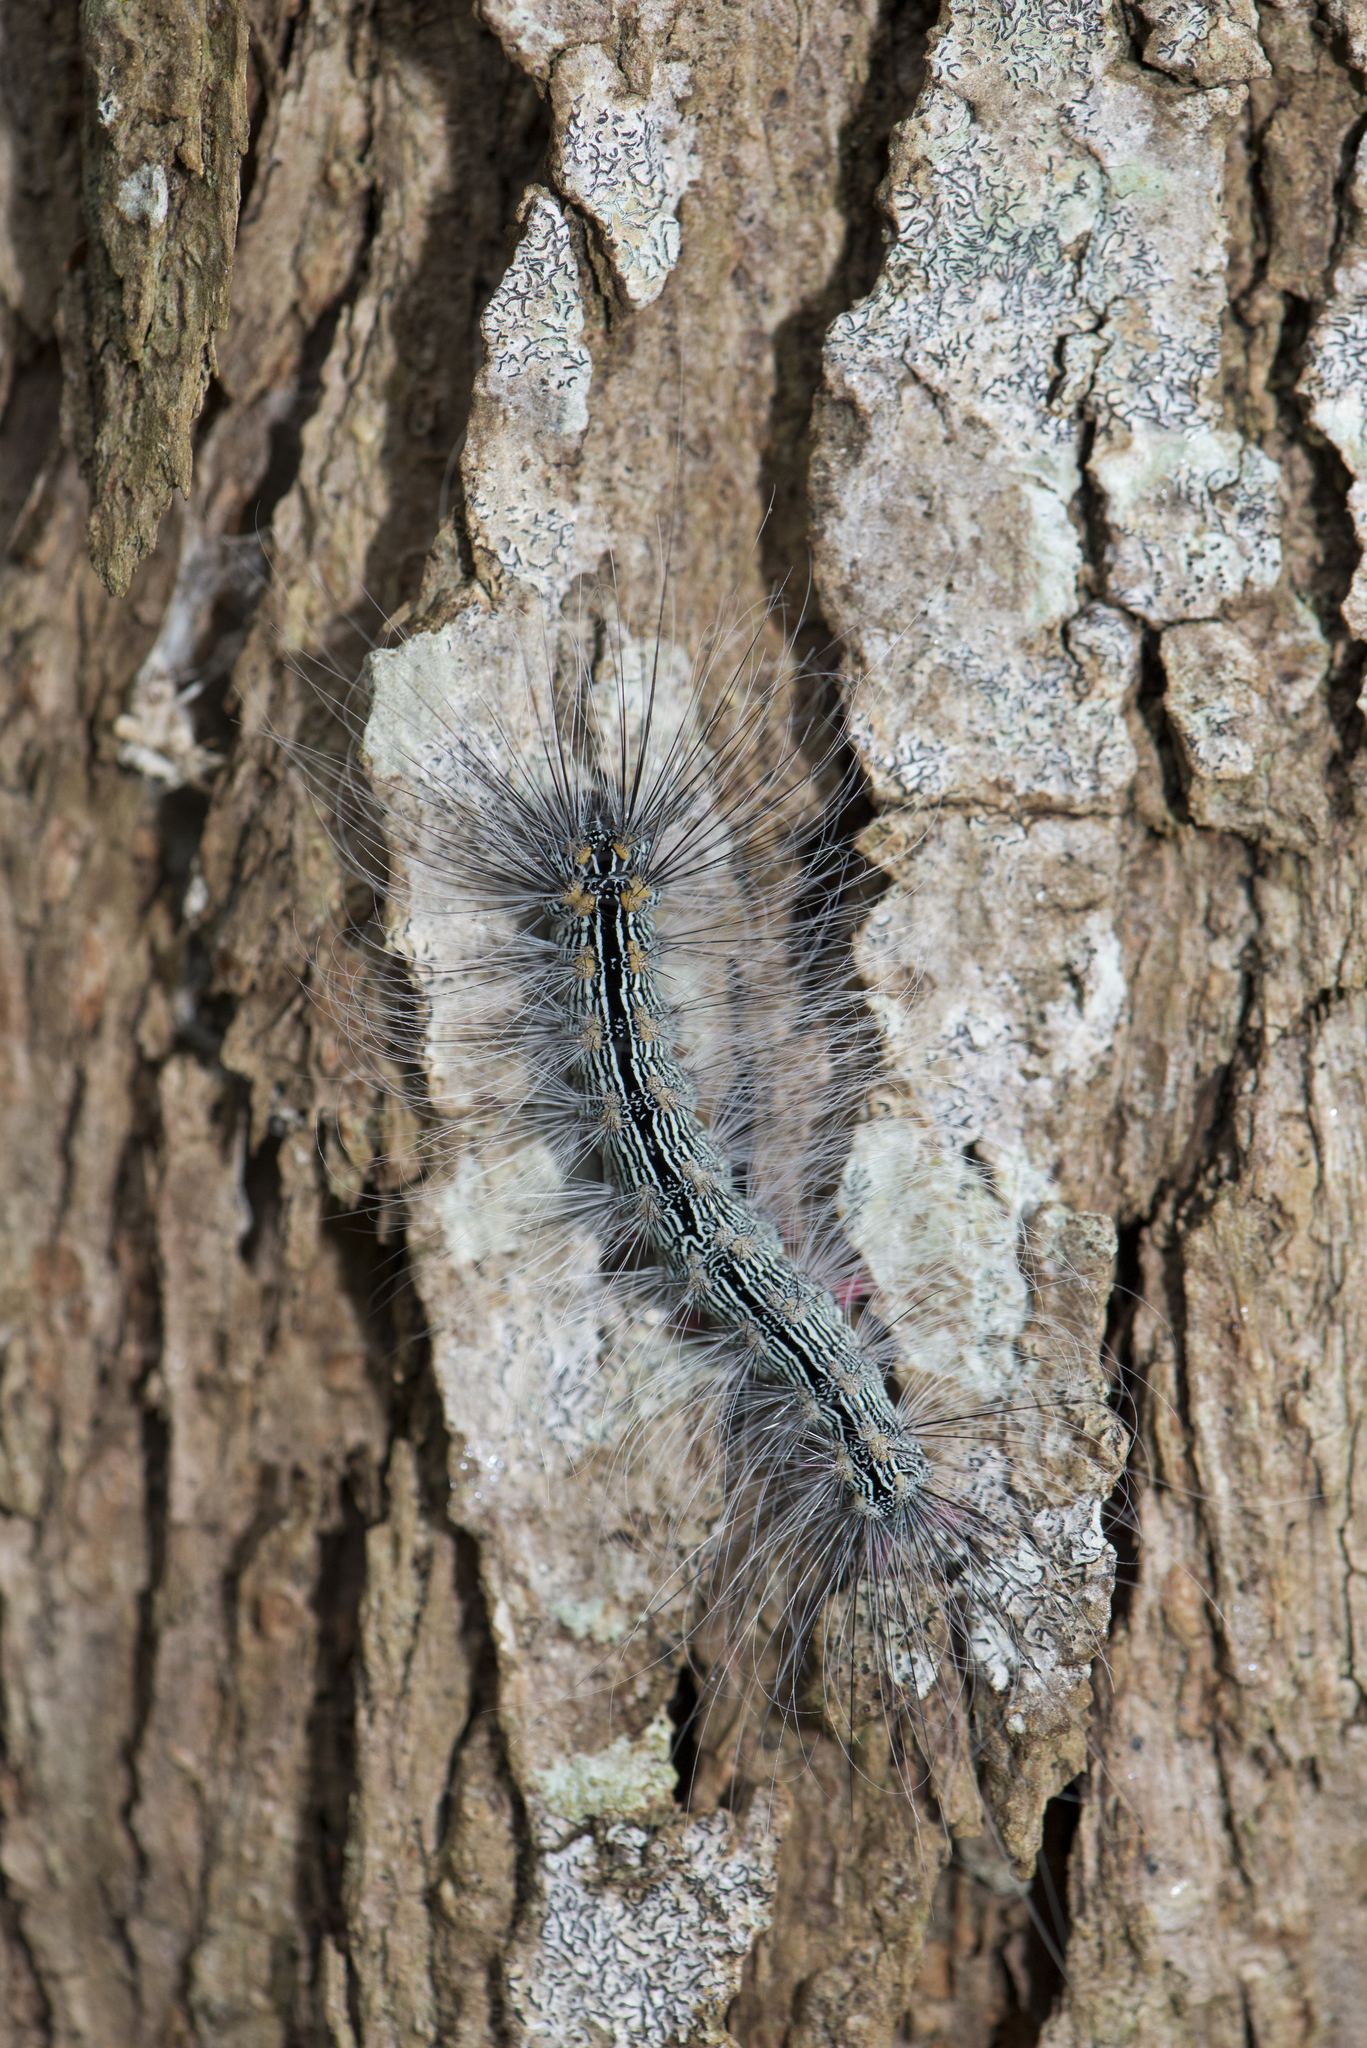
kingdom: Animalia
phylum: Arthropoda
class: Insecta
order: Lepidoptera
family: Erebidae
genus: Chrysaeglia
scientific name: Chrysaeglia magnifica
